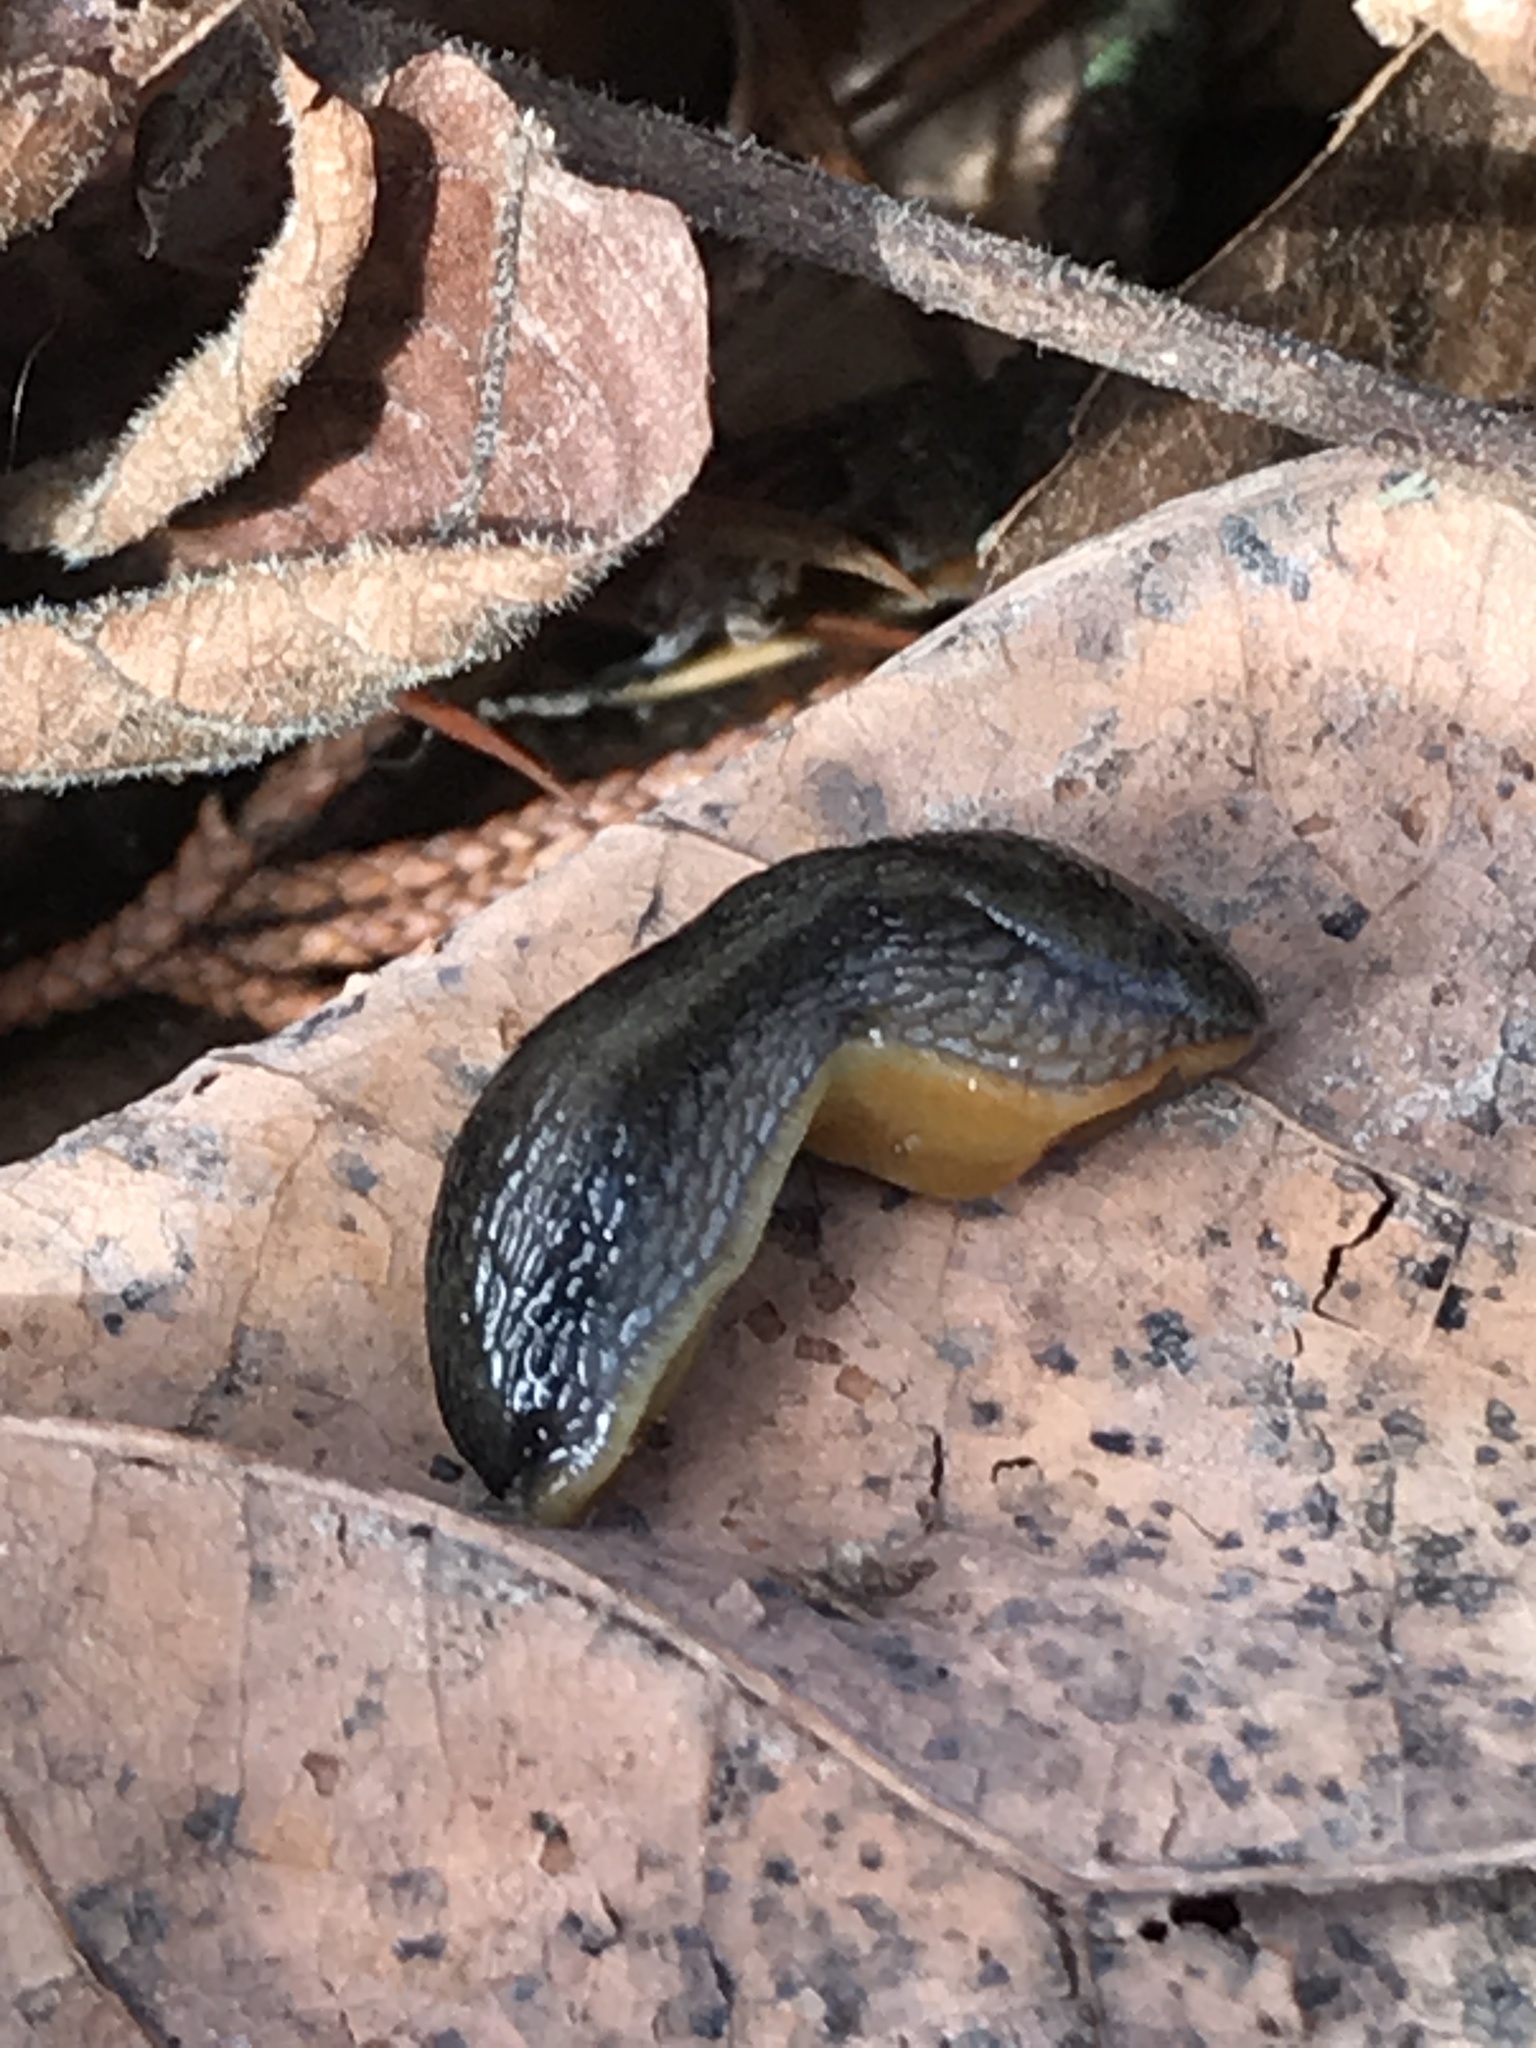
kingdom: Animalia
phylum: Mollusca
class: Gastropoda
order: Stylommatophora
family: Arionidae
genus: Arion
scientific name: Arion hortensis
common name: Garden arion
